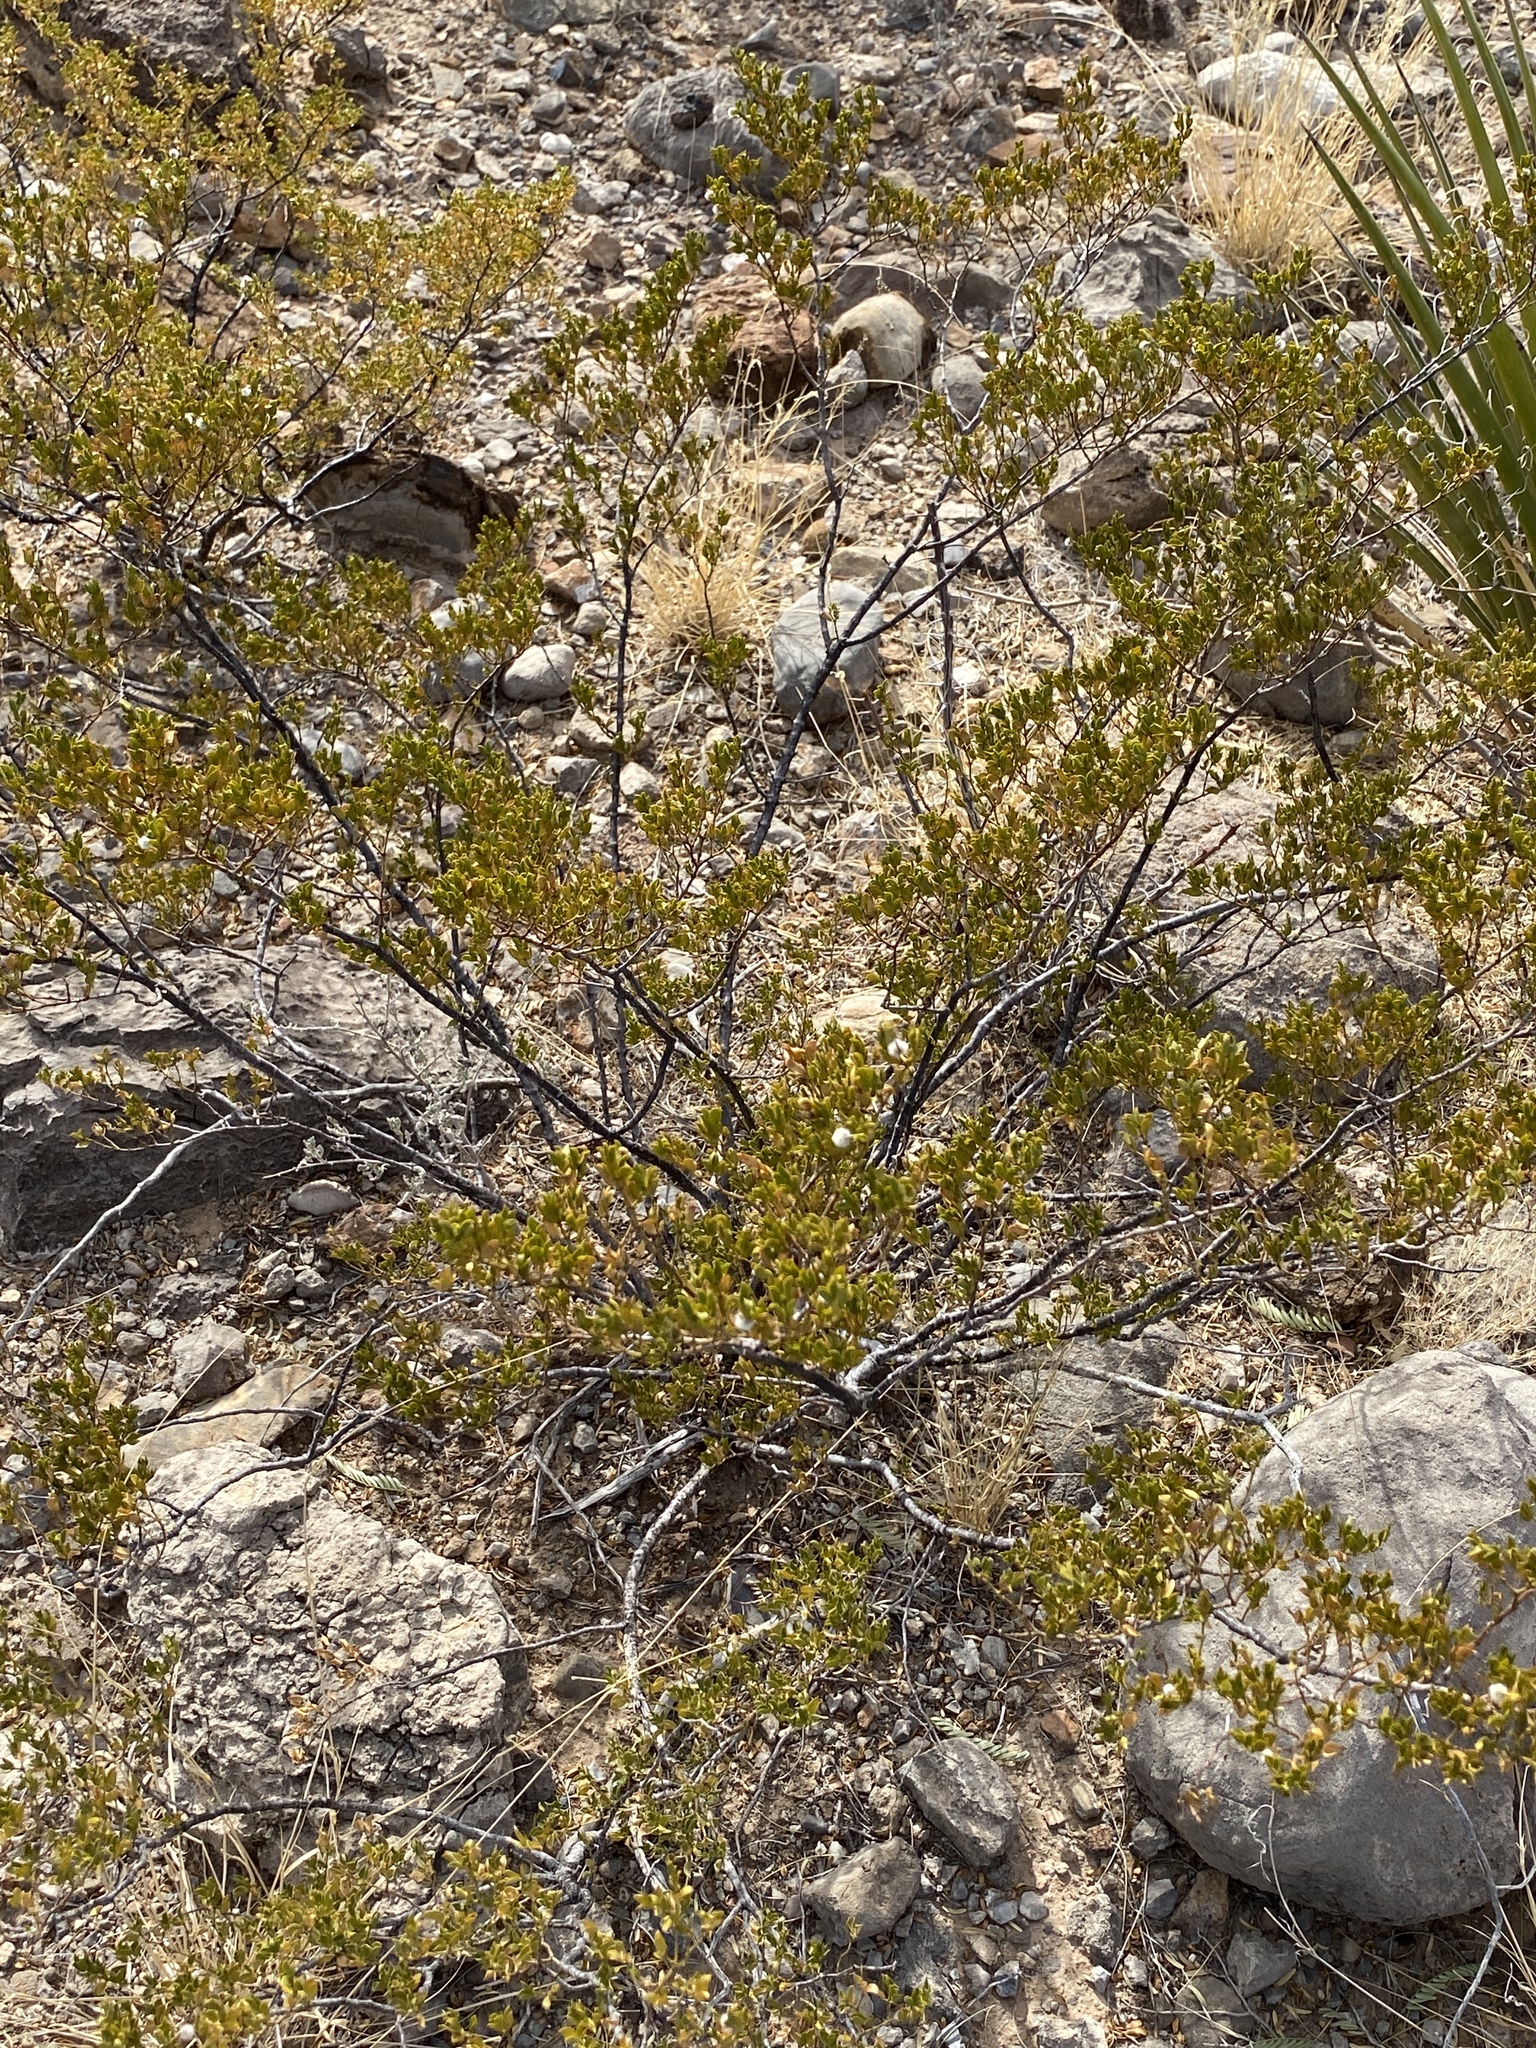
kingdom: Plantae
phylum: Tracheophyta
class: Magnoliopsida
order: Zygophyllales
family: Zygophyllaceae
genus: Larrea
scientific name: Larrea tridentata
